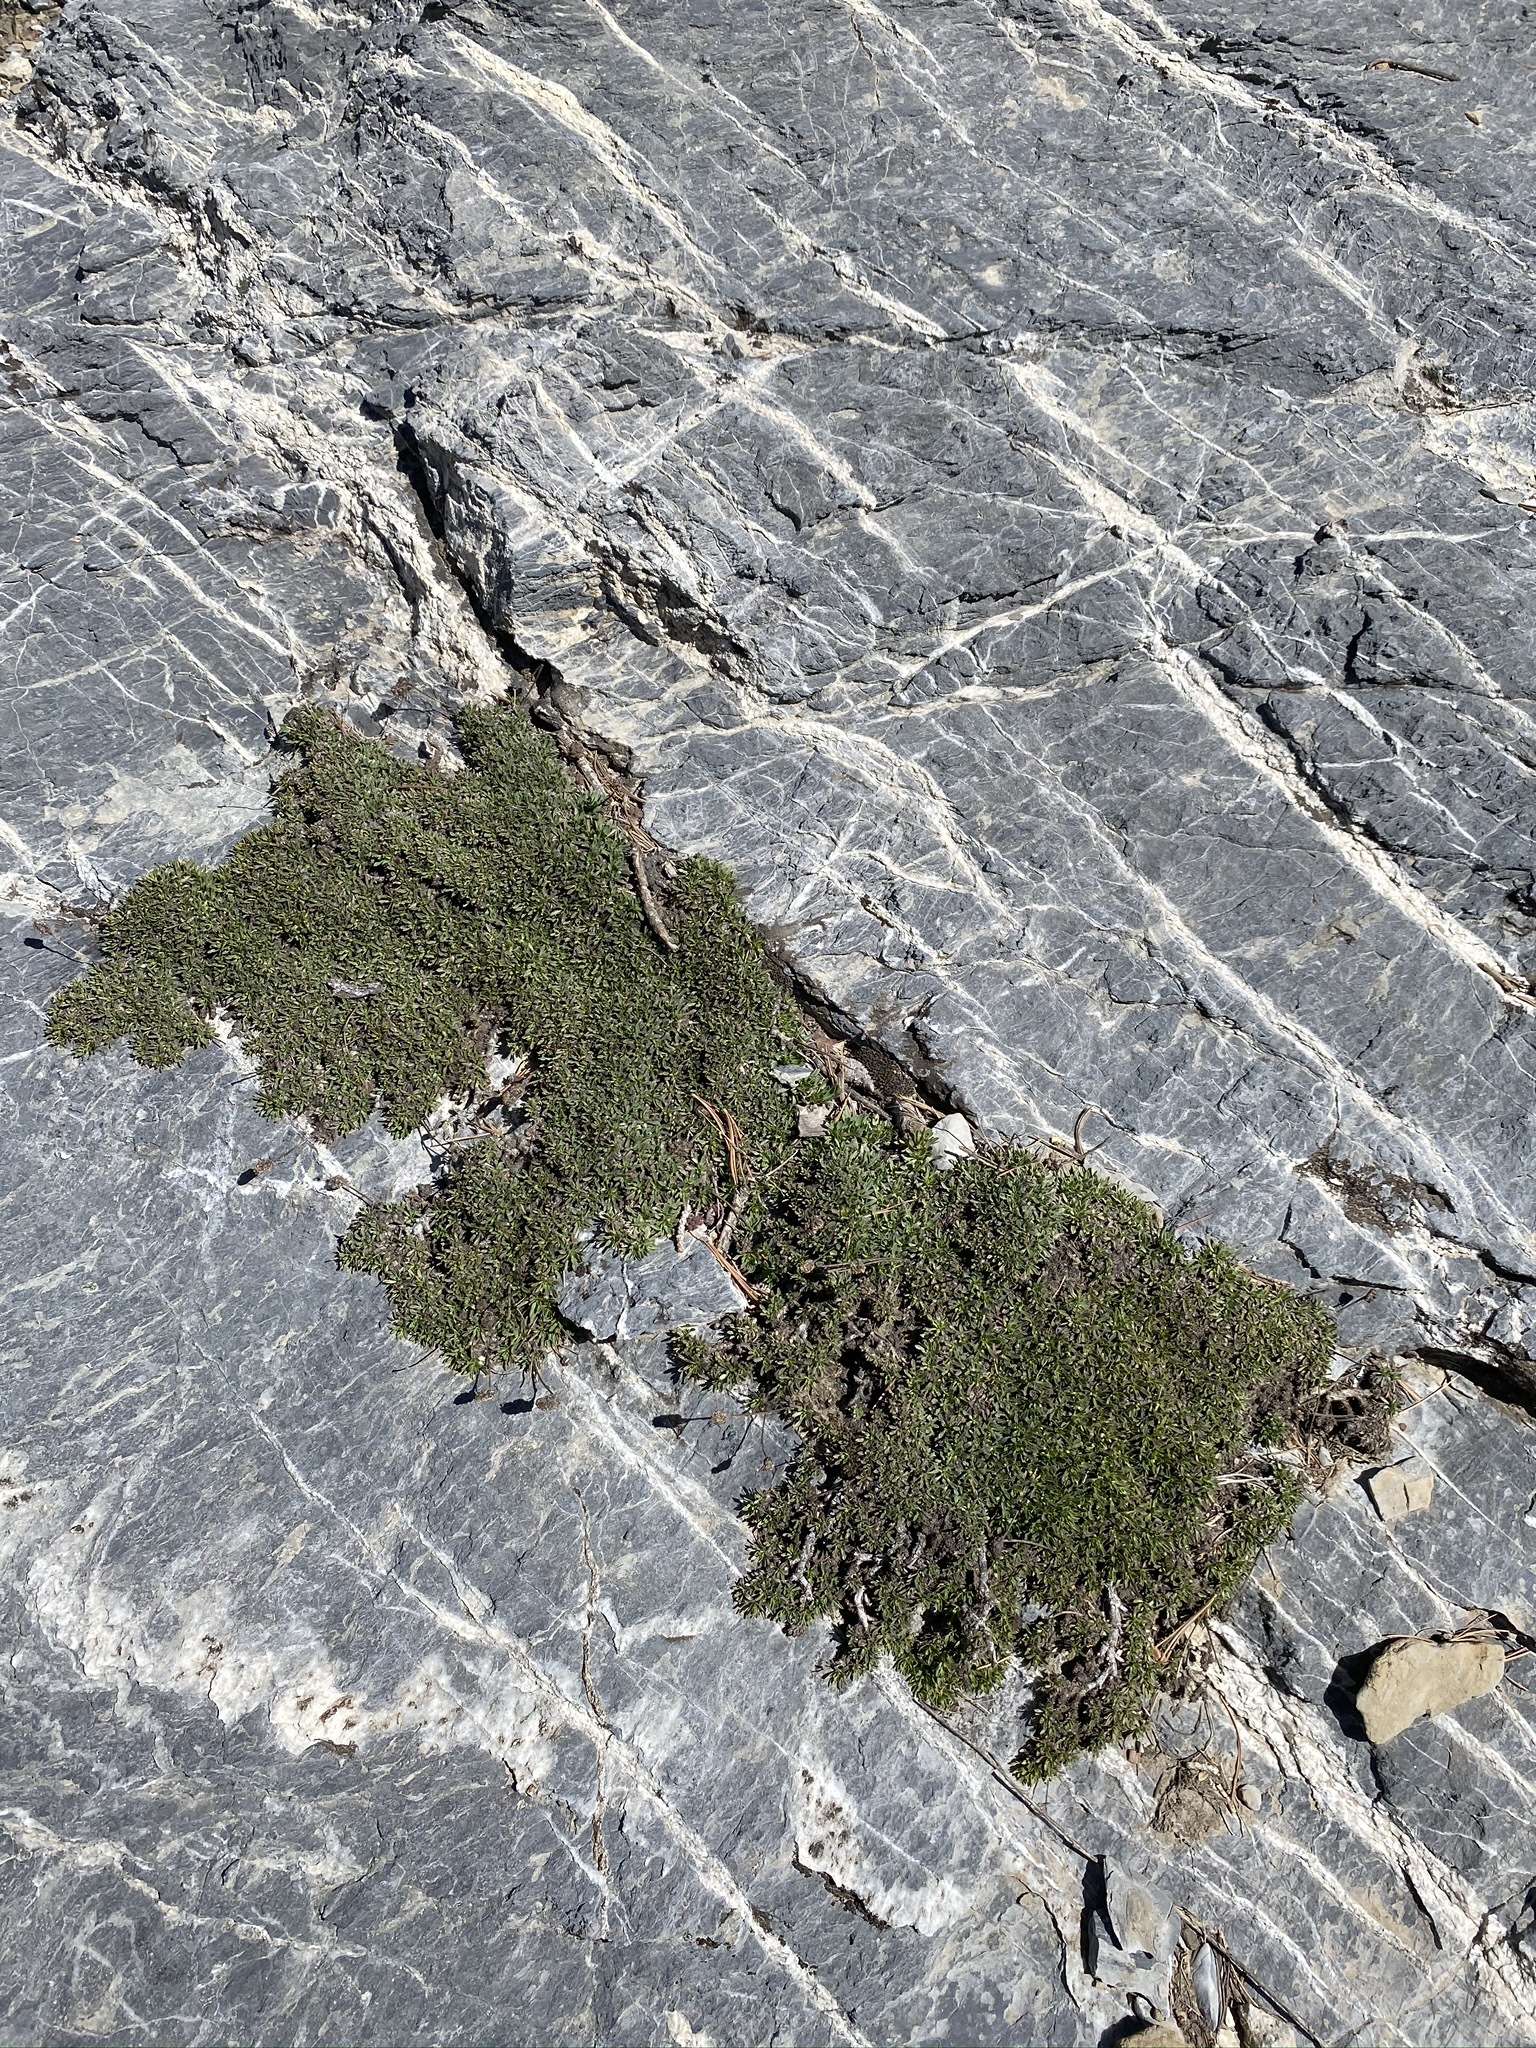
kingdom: Plantae
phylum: Tracheophyta
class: Magnoliopsida
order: Rosales
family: Rosaceae
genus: Petrophytum
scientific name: Petrophytum caespitosum
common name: Mat rockspirea
